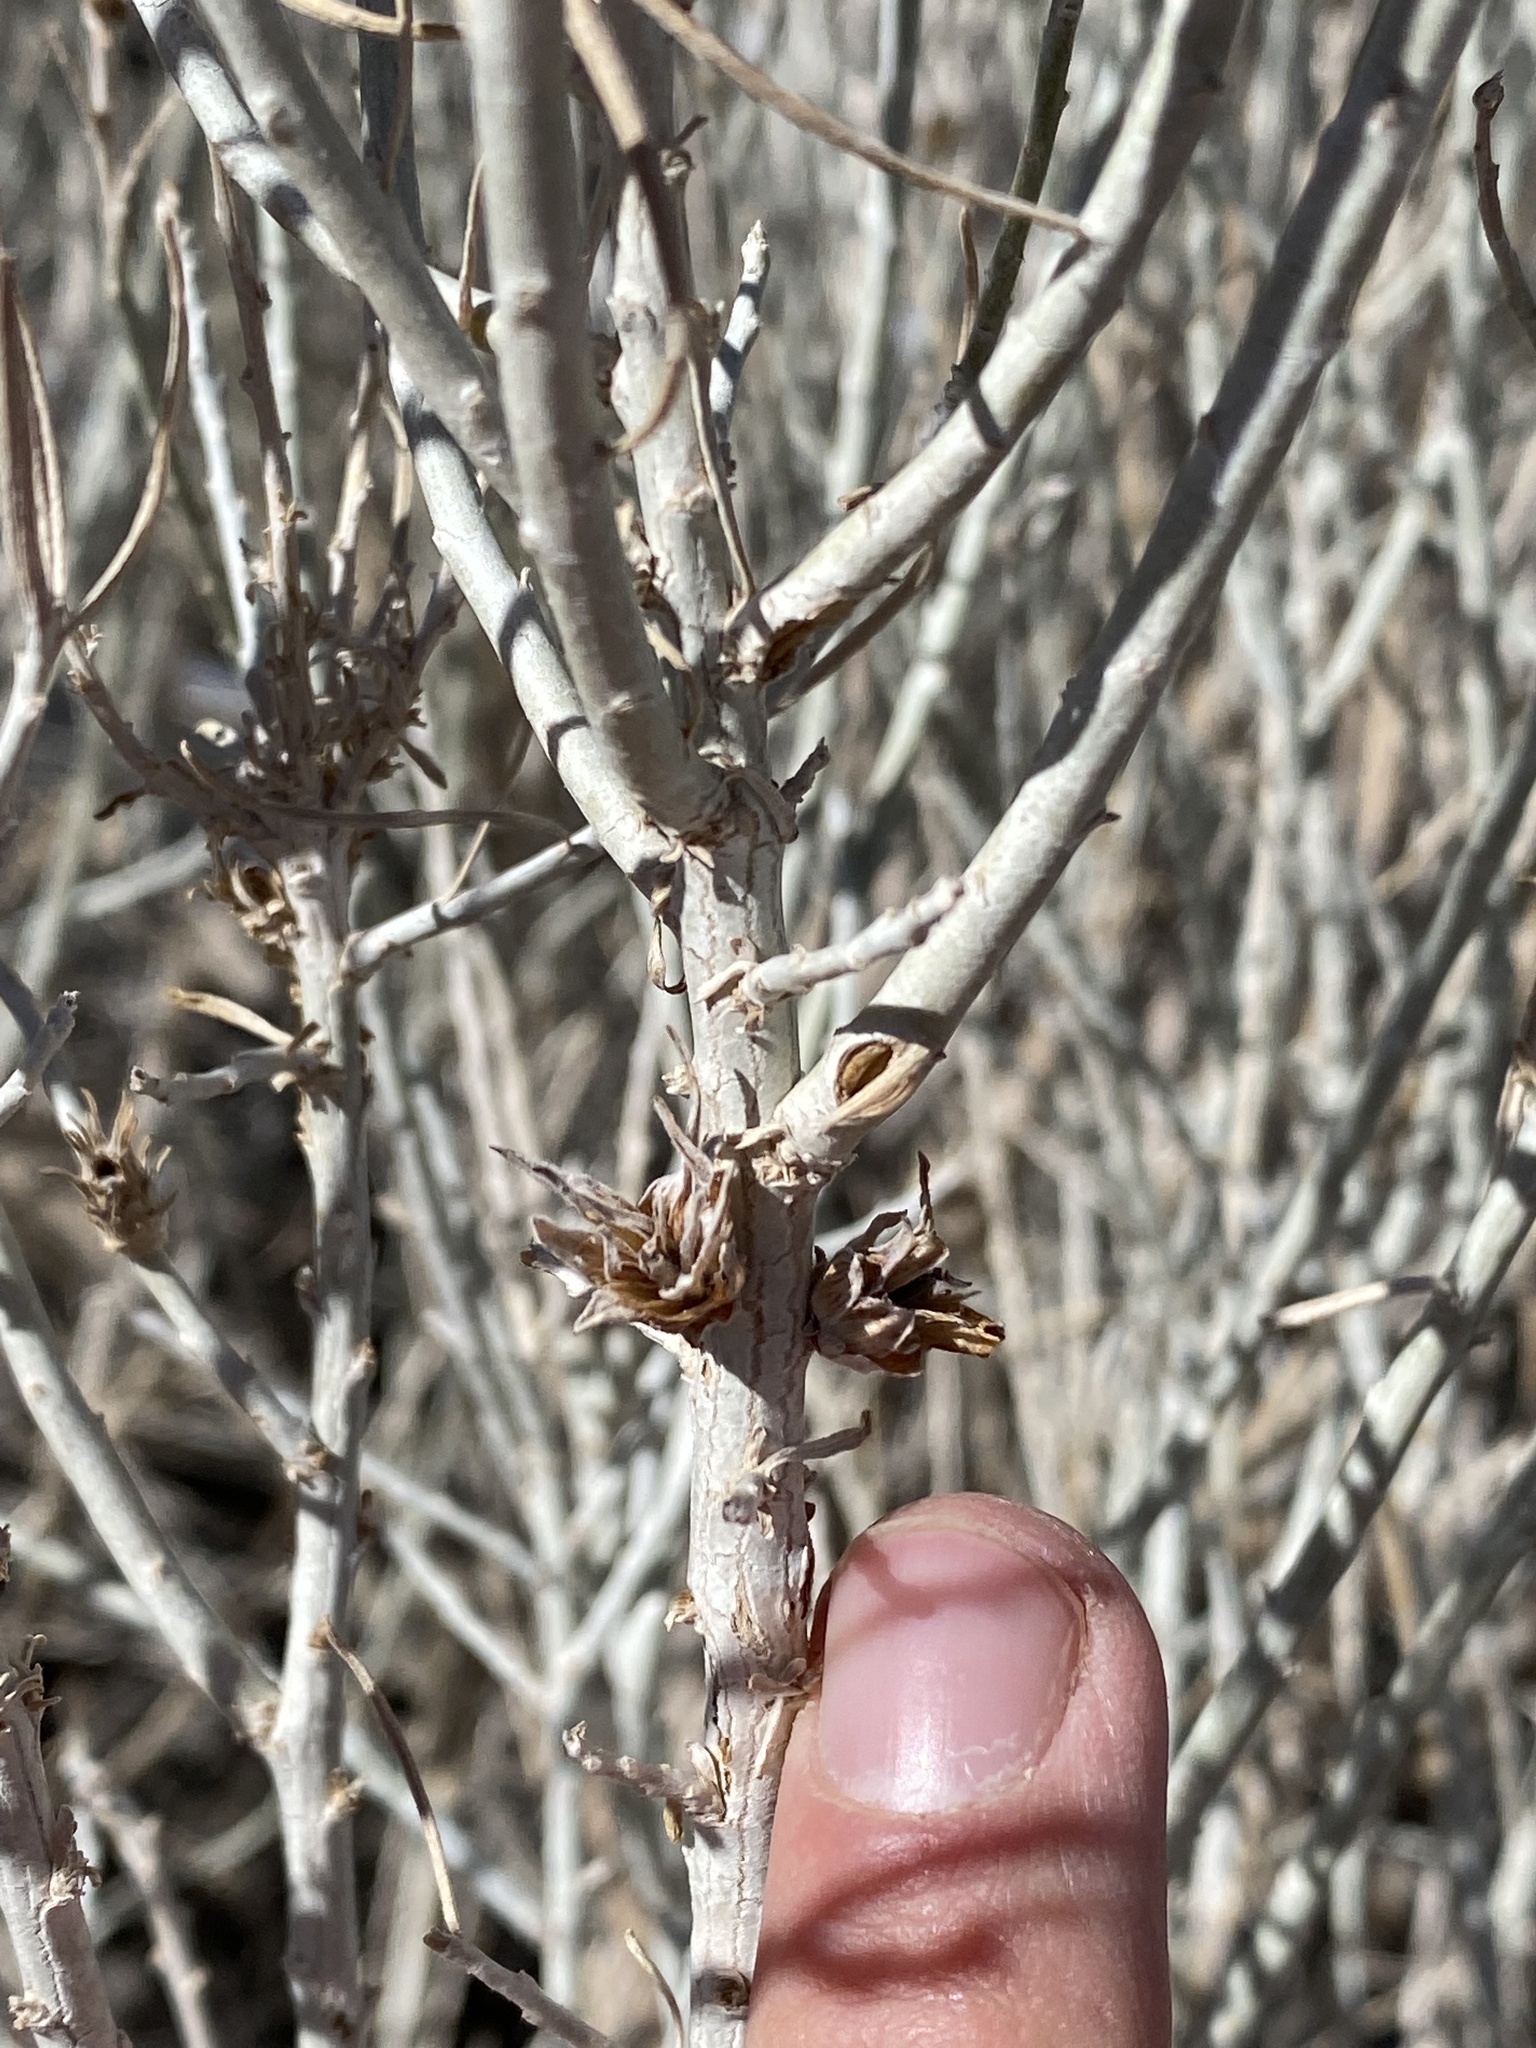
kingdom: Animalia
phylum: Arthropoda
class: Insecta
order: Diptera
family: Cecidomyiidae
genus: Rhopalomyia
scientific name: Rhopalomyia ericameriae
